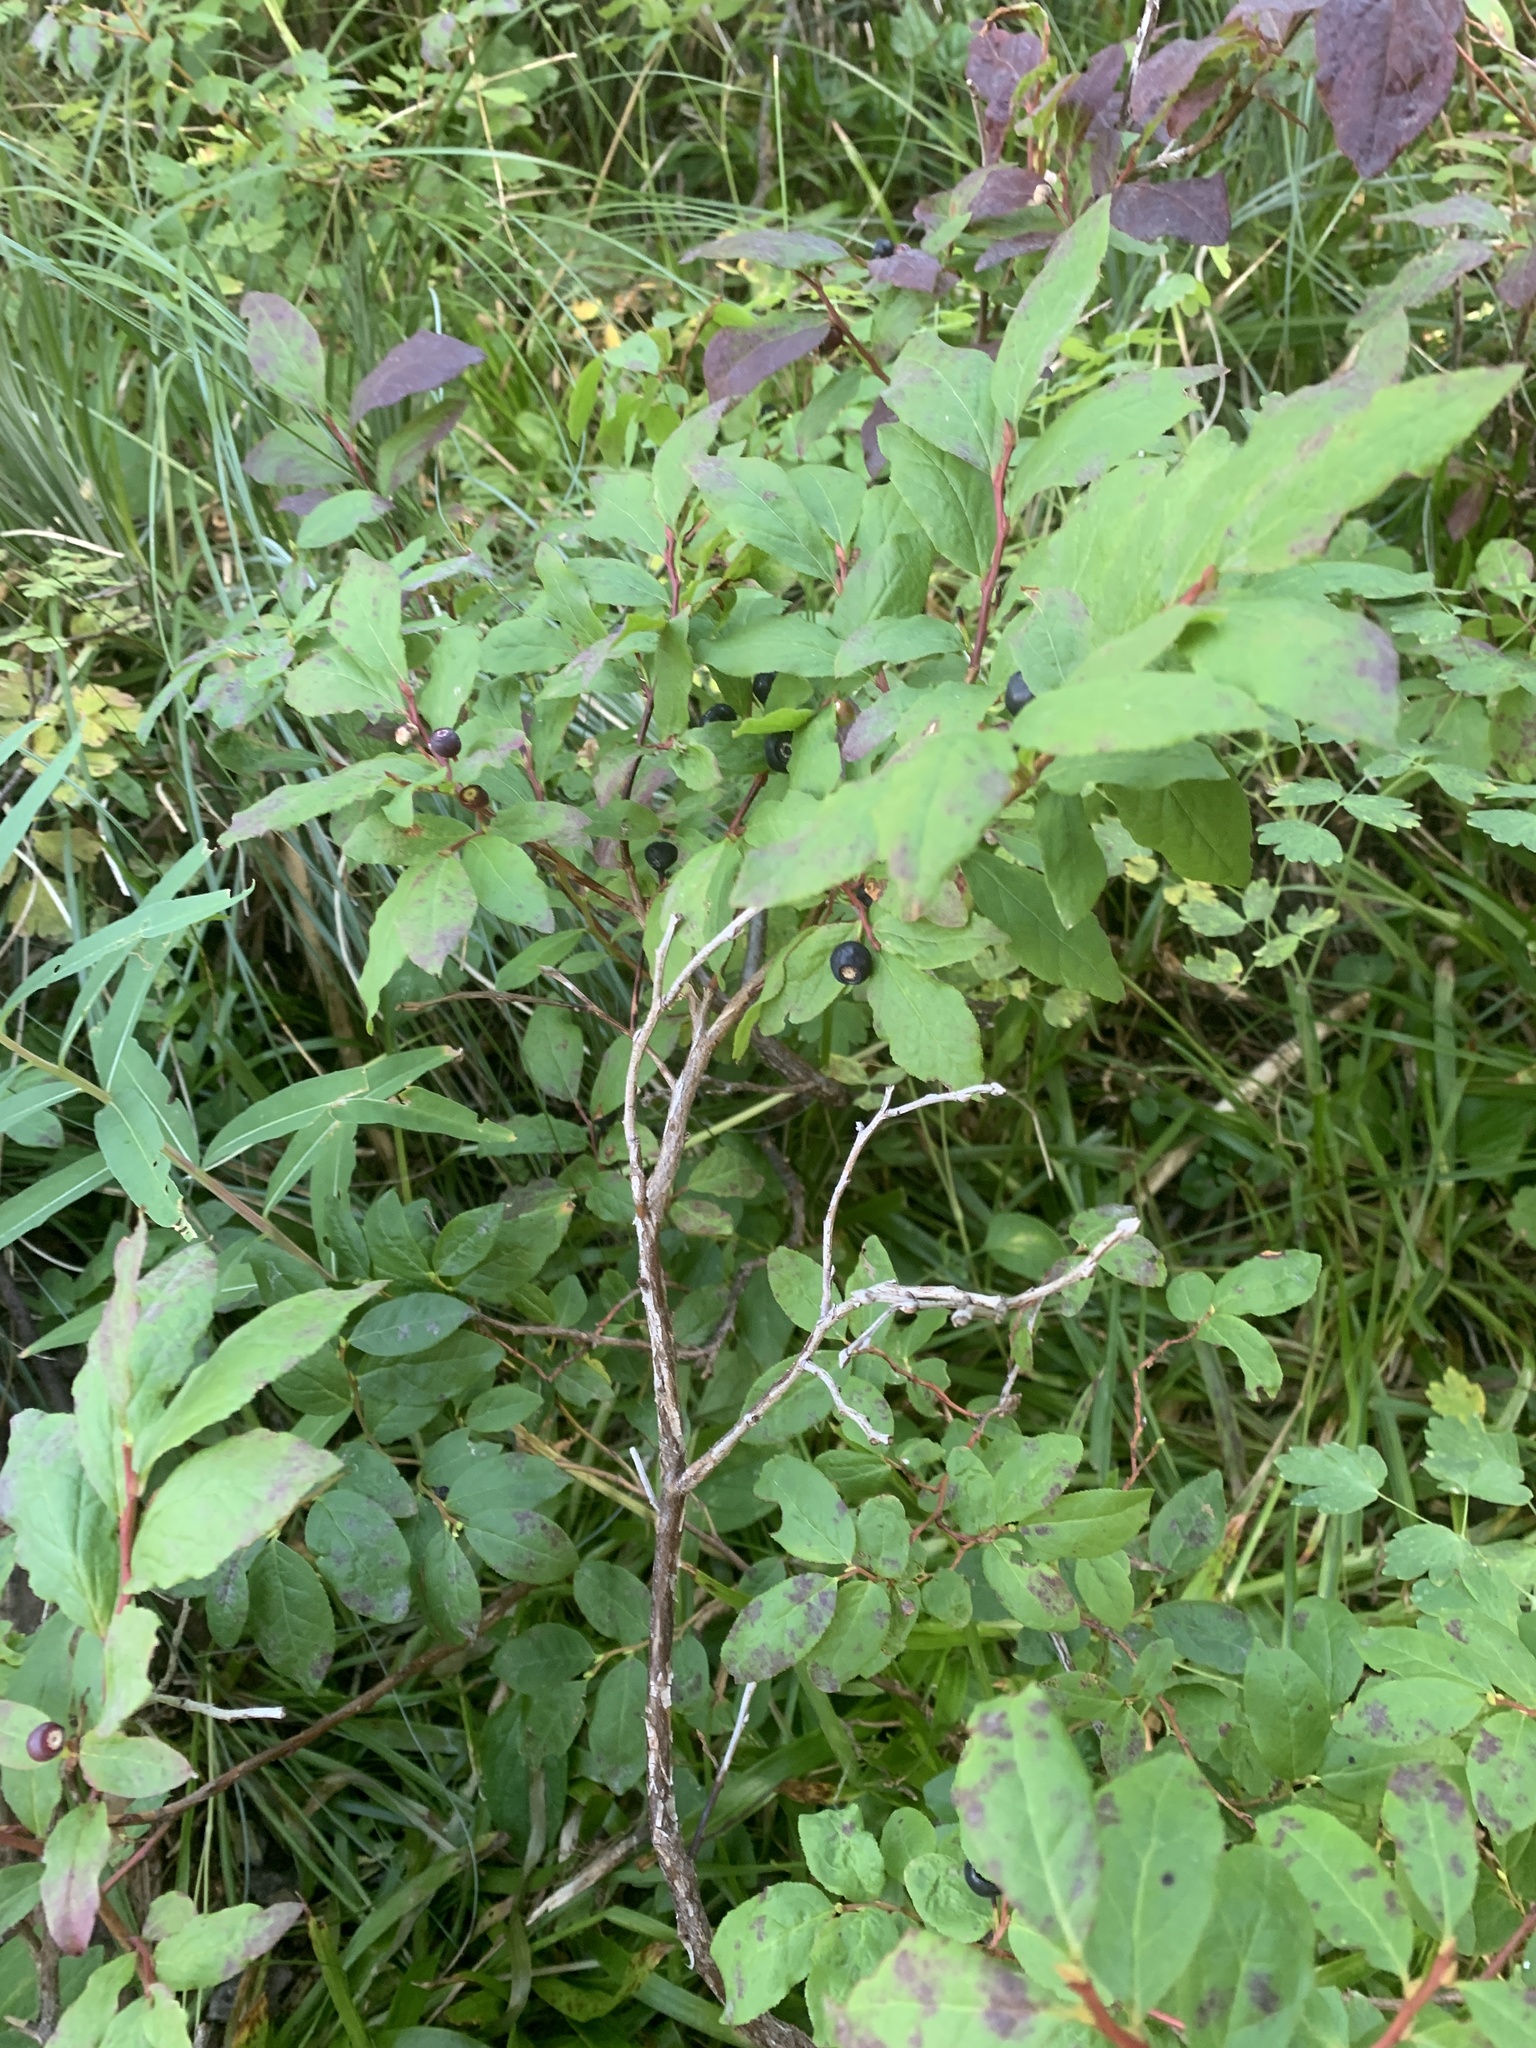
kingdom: Plantae
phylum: Tracheophyta
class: Magnoliopsida
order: Ericales
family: Ericaceae
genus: Vaccinium
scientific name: Vaccinium membranaceum
